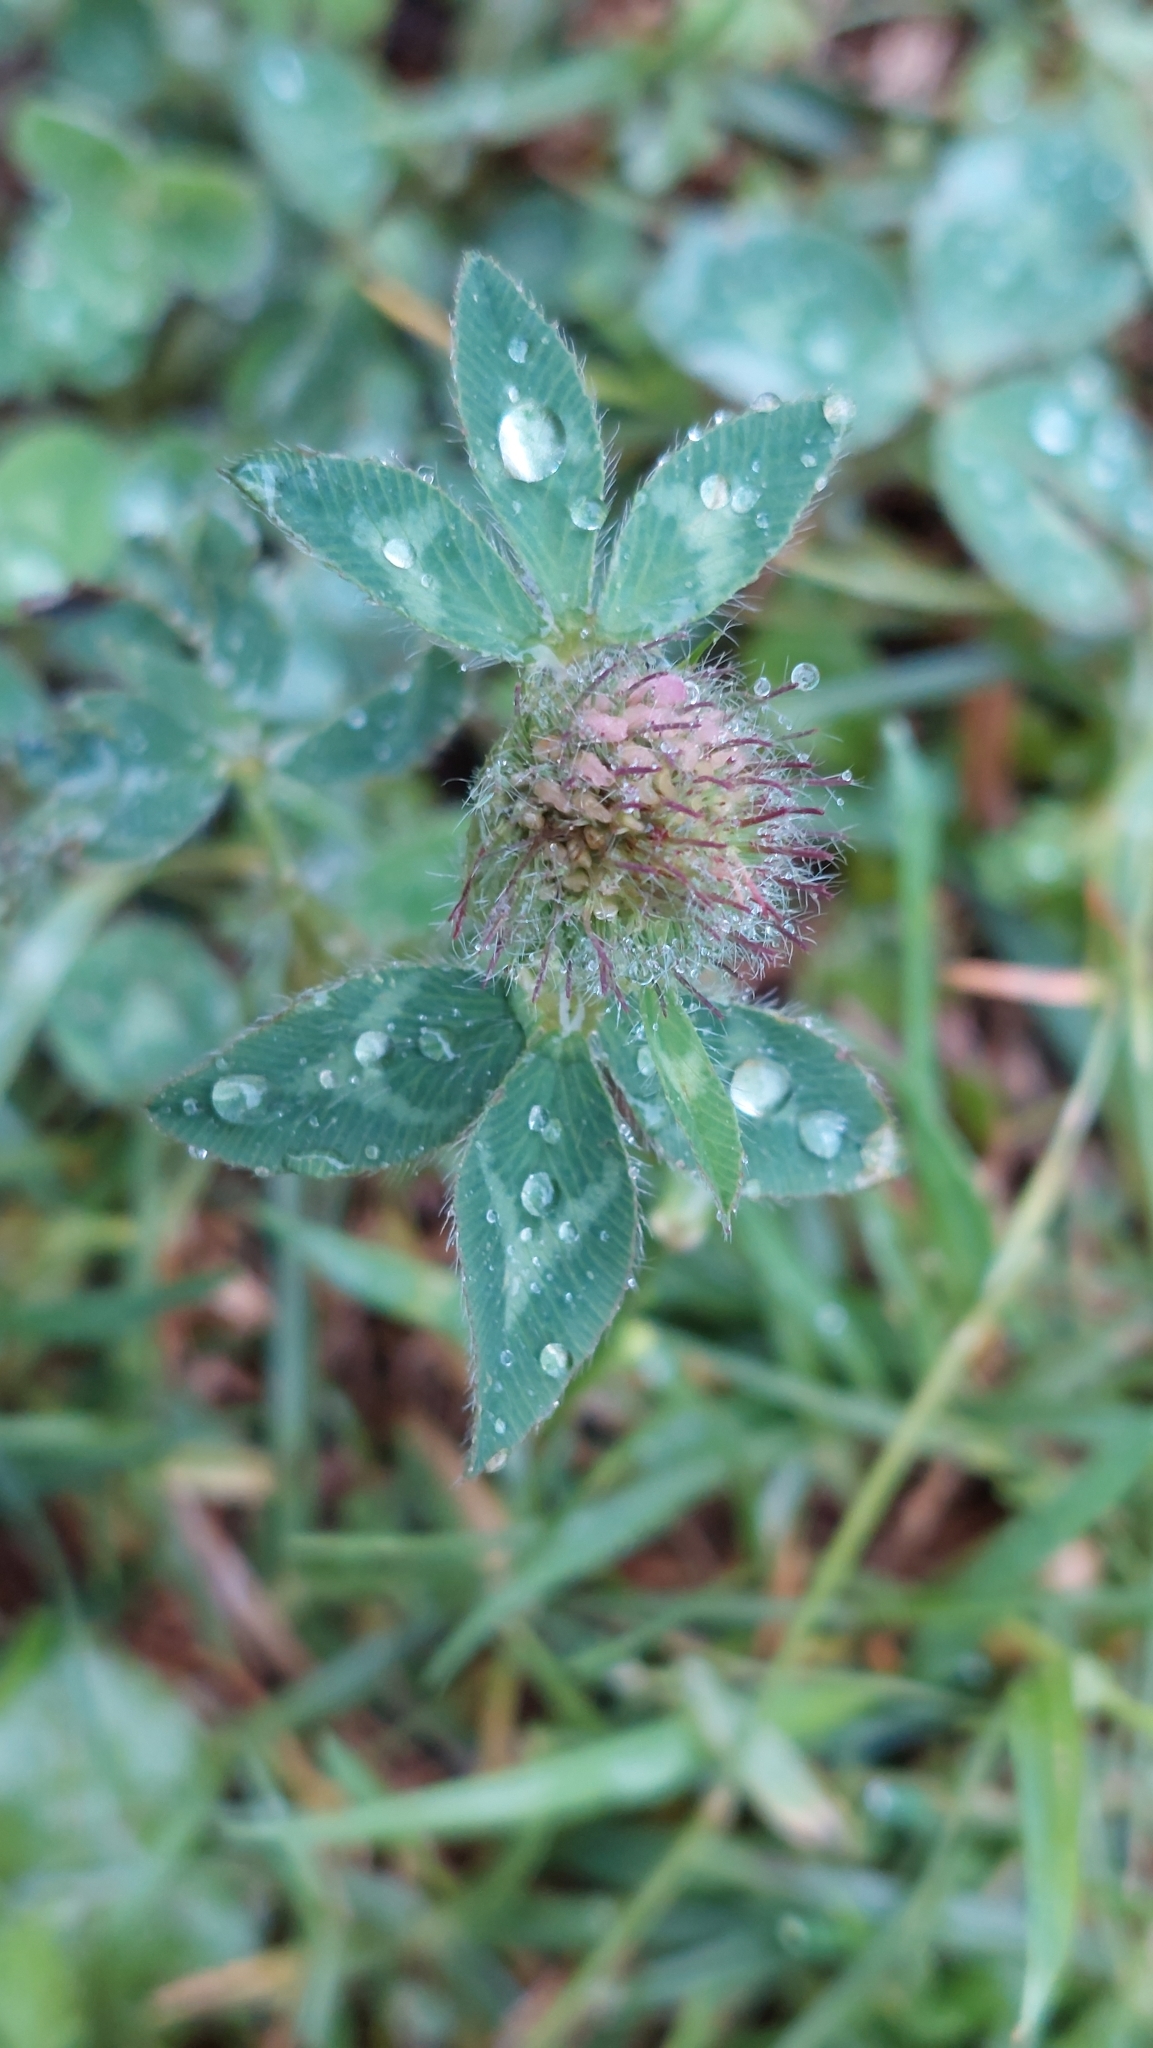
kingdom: Plantae
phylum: Tracheophyta
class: Magnoliopsida
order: Fabales
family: Fabaceae
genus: Trifolium
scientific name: Trifolium pratense
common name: Red clover
